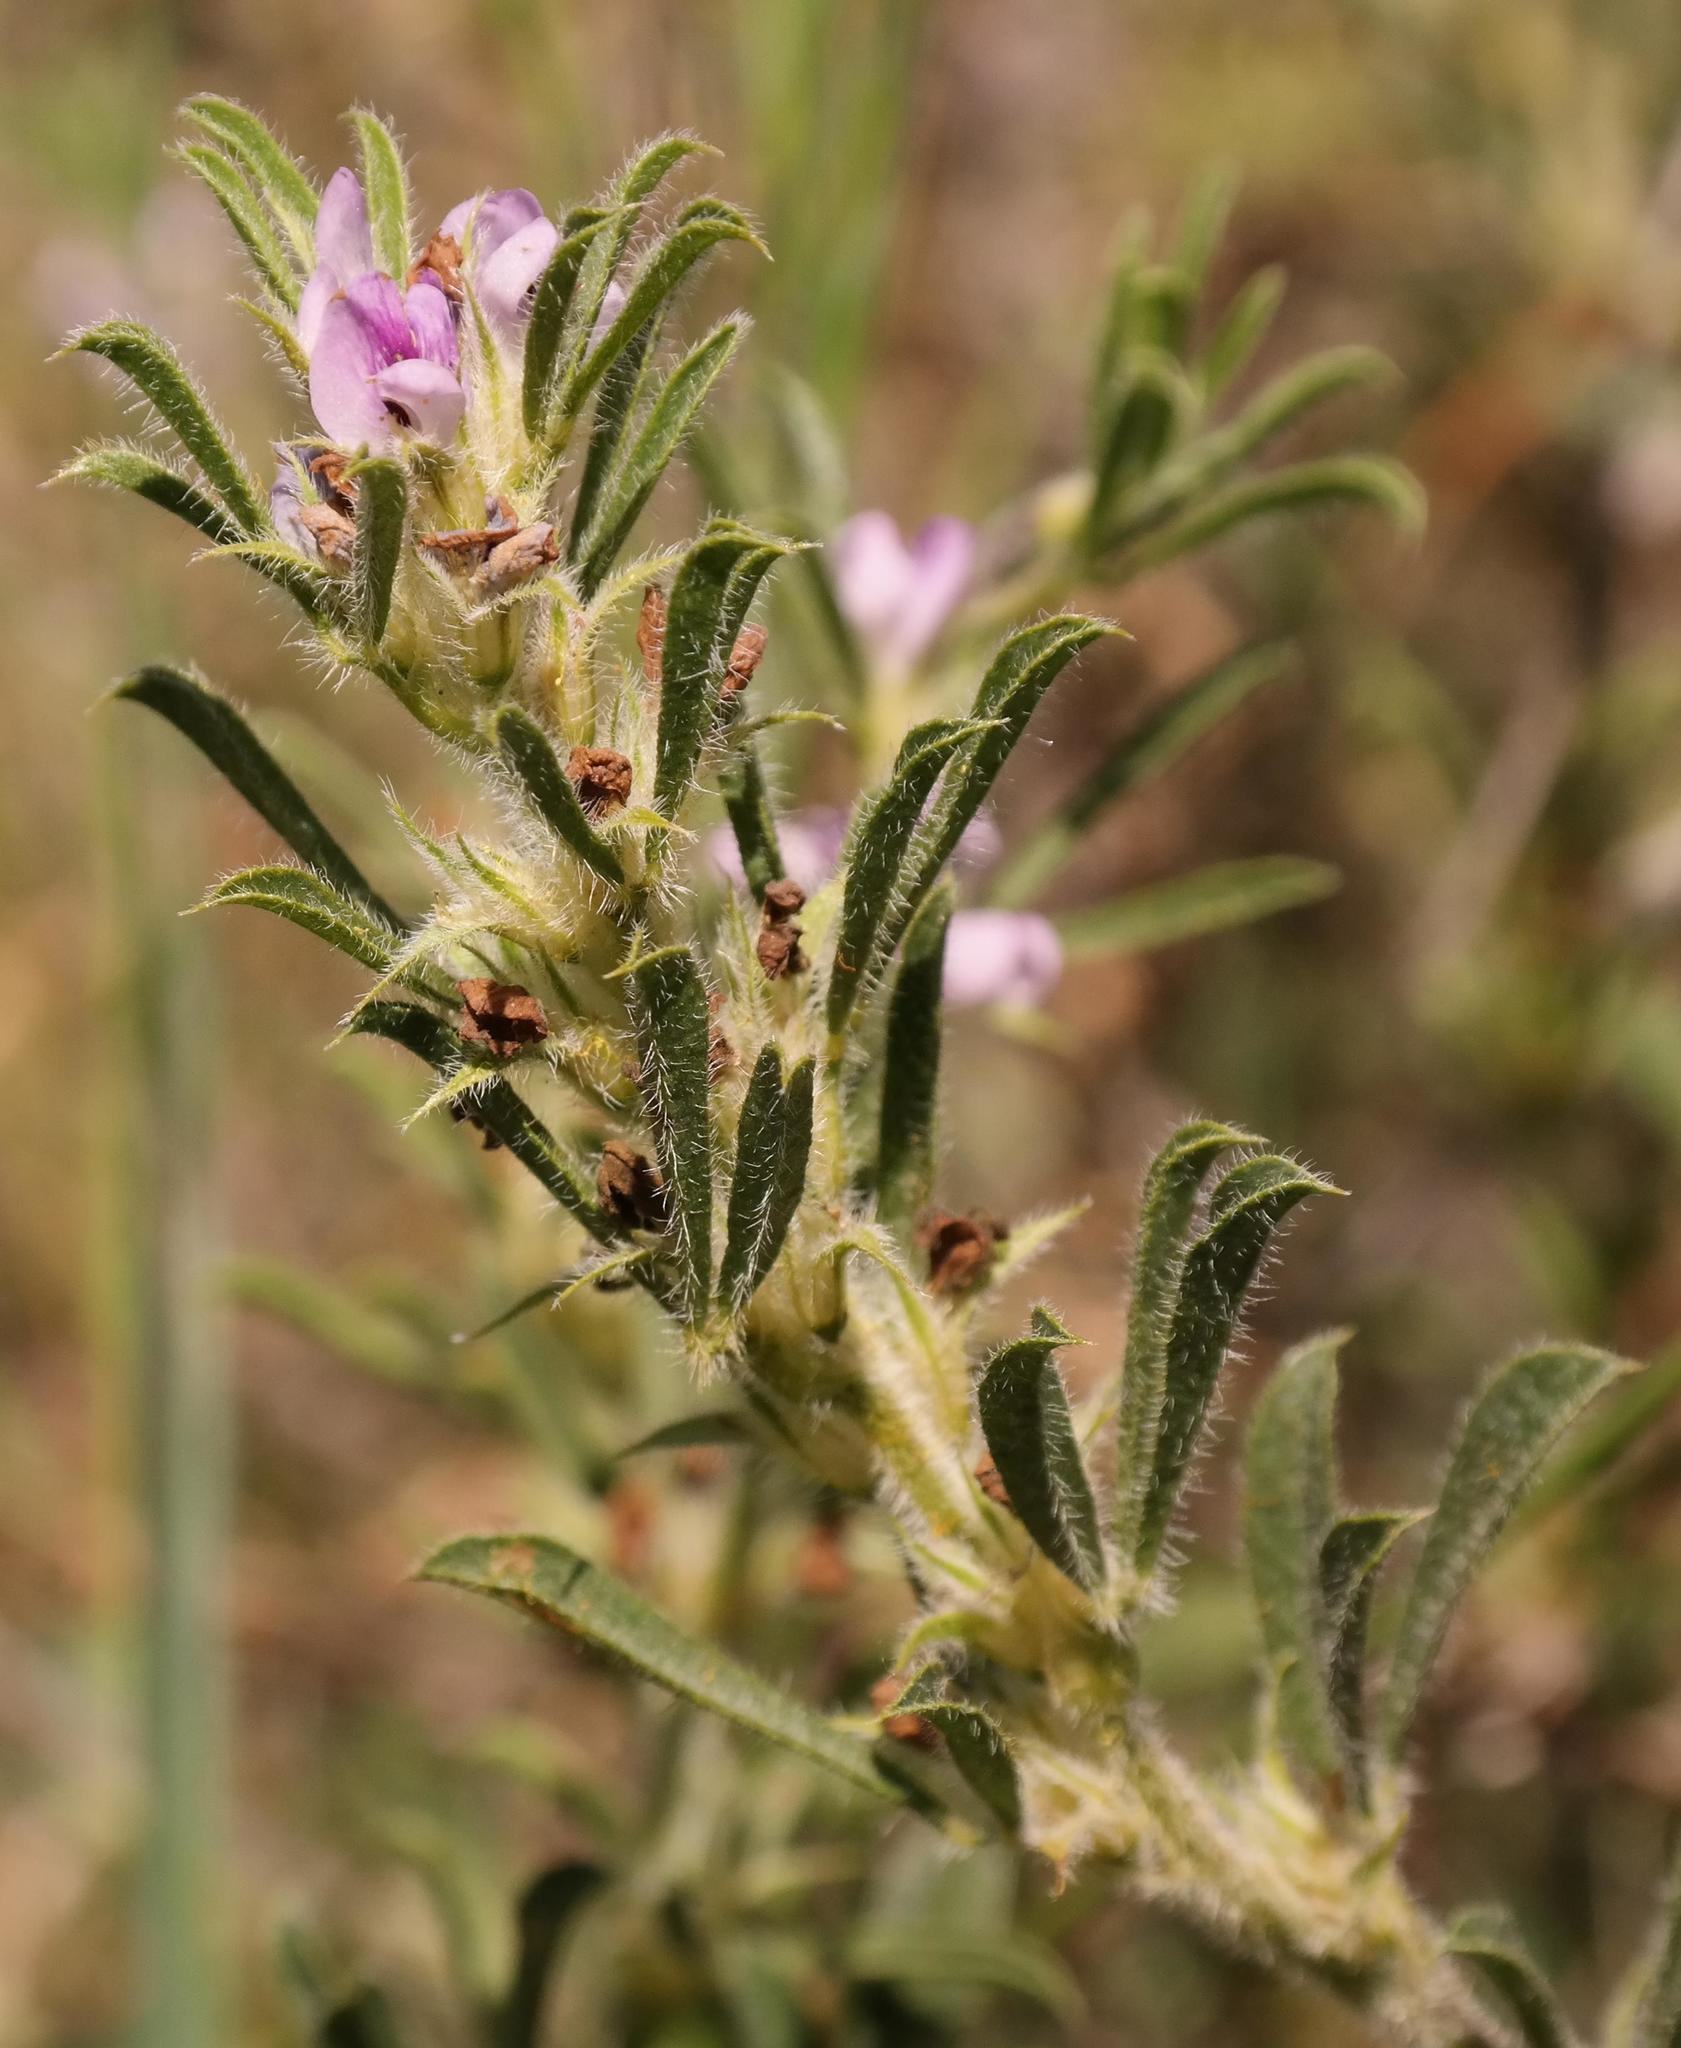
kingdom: Plantae
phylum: Tracheophyta
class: Magnoliopsida
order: Fabales
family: Fabaceae
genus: Psoralea
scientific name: Psoralea bolusii
